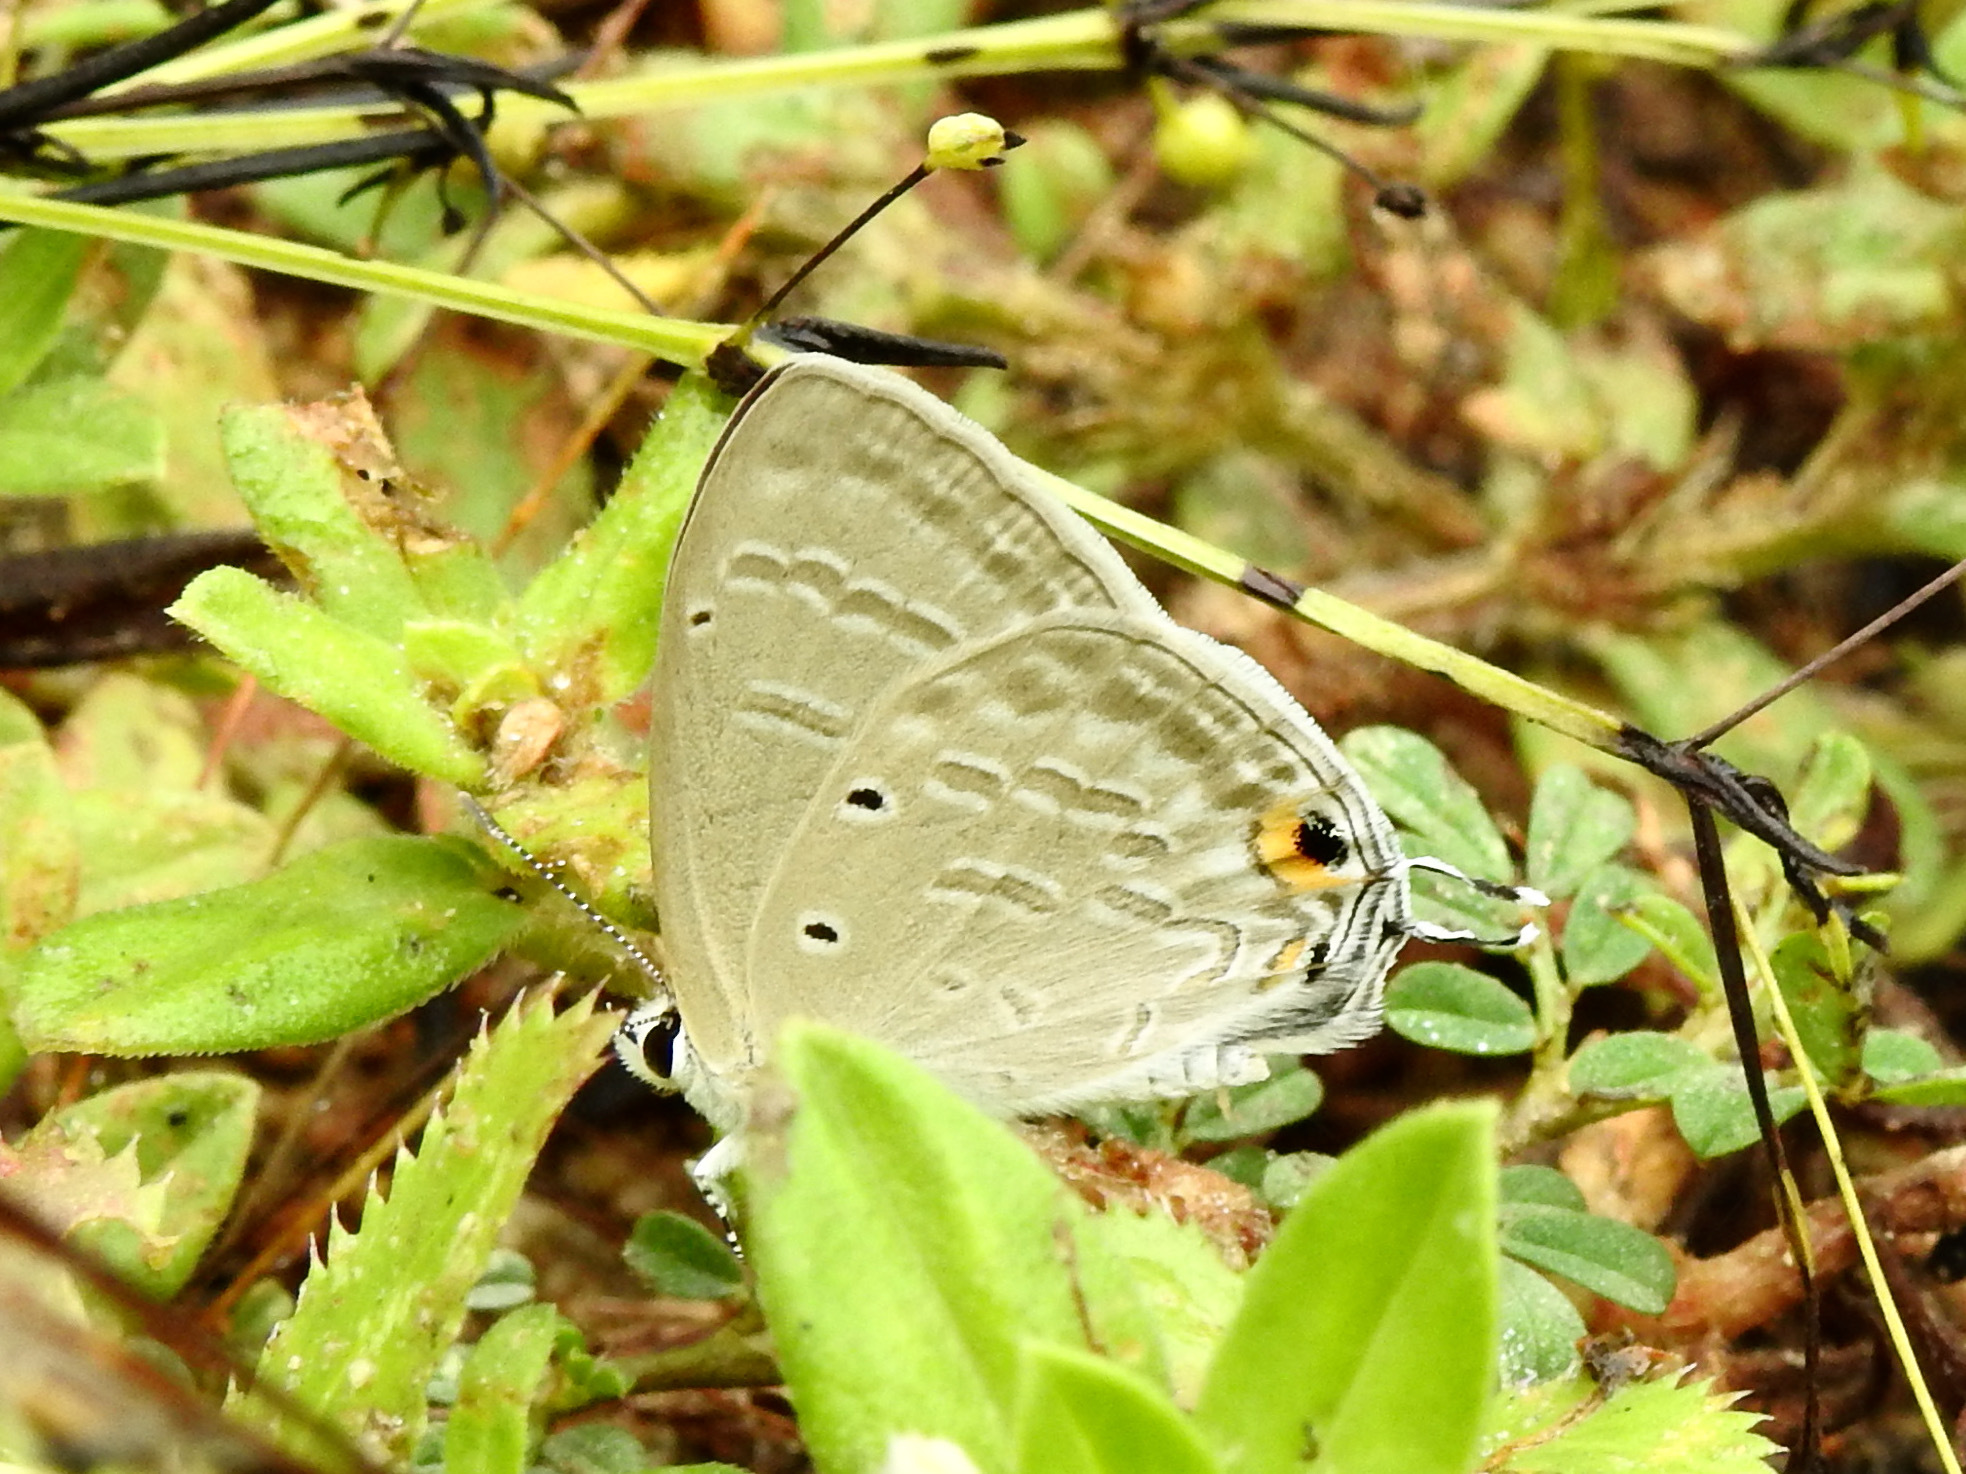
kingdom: Animalia
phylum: Arthropoda
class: Insecta
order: Lepidoptera
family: Lycaenidae
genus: Catochrysops
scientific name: Catochrysops strabo
